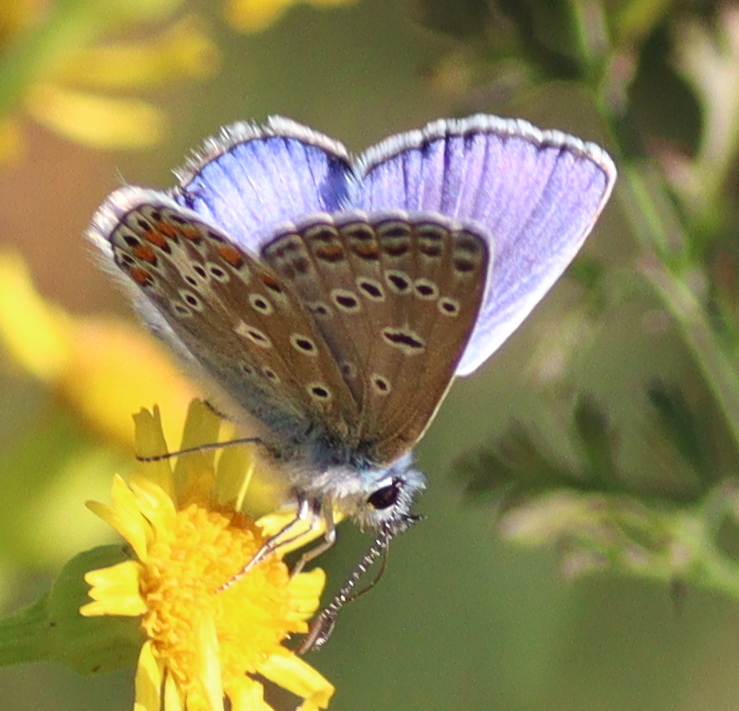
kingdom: Animalia
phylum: Arthropoda
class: Insecta
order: Lepidoptera
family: Lycaenidae
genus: Polyommatus
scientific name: Polyommatus icarus
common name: Common blue
